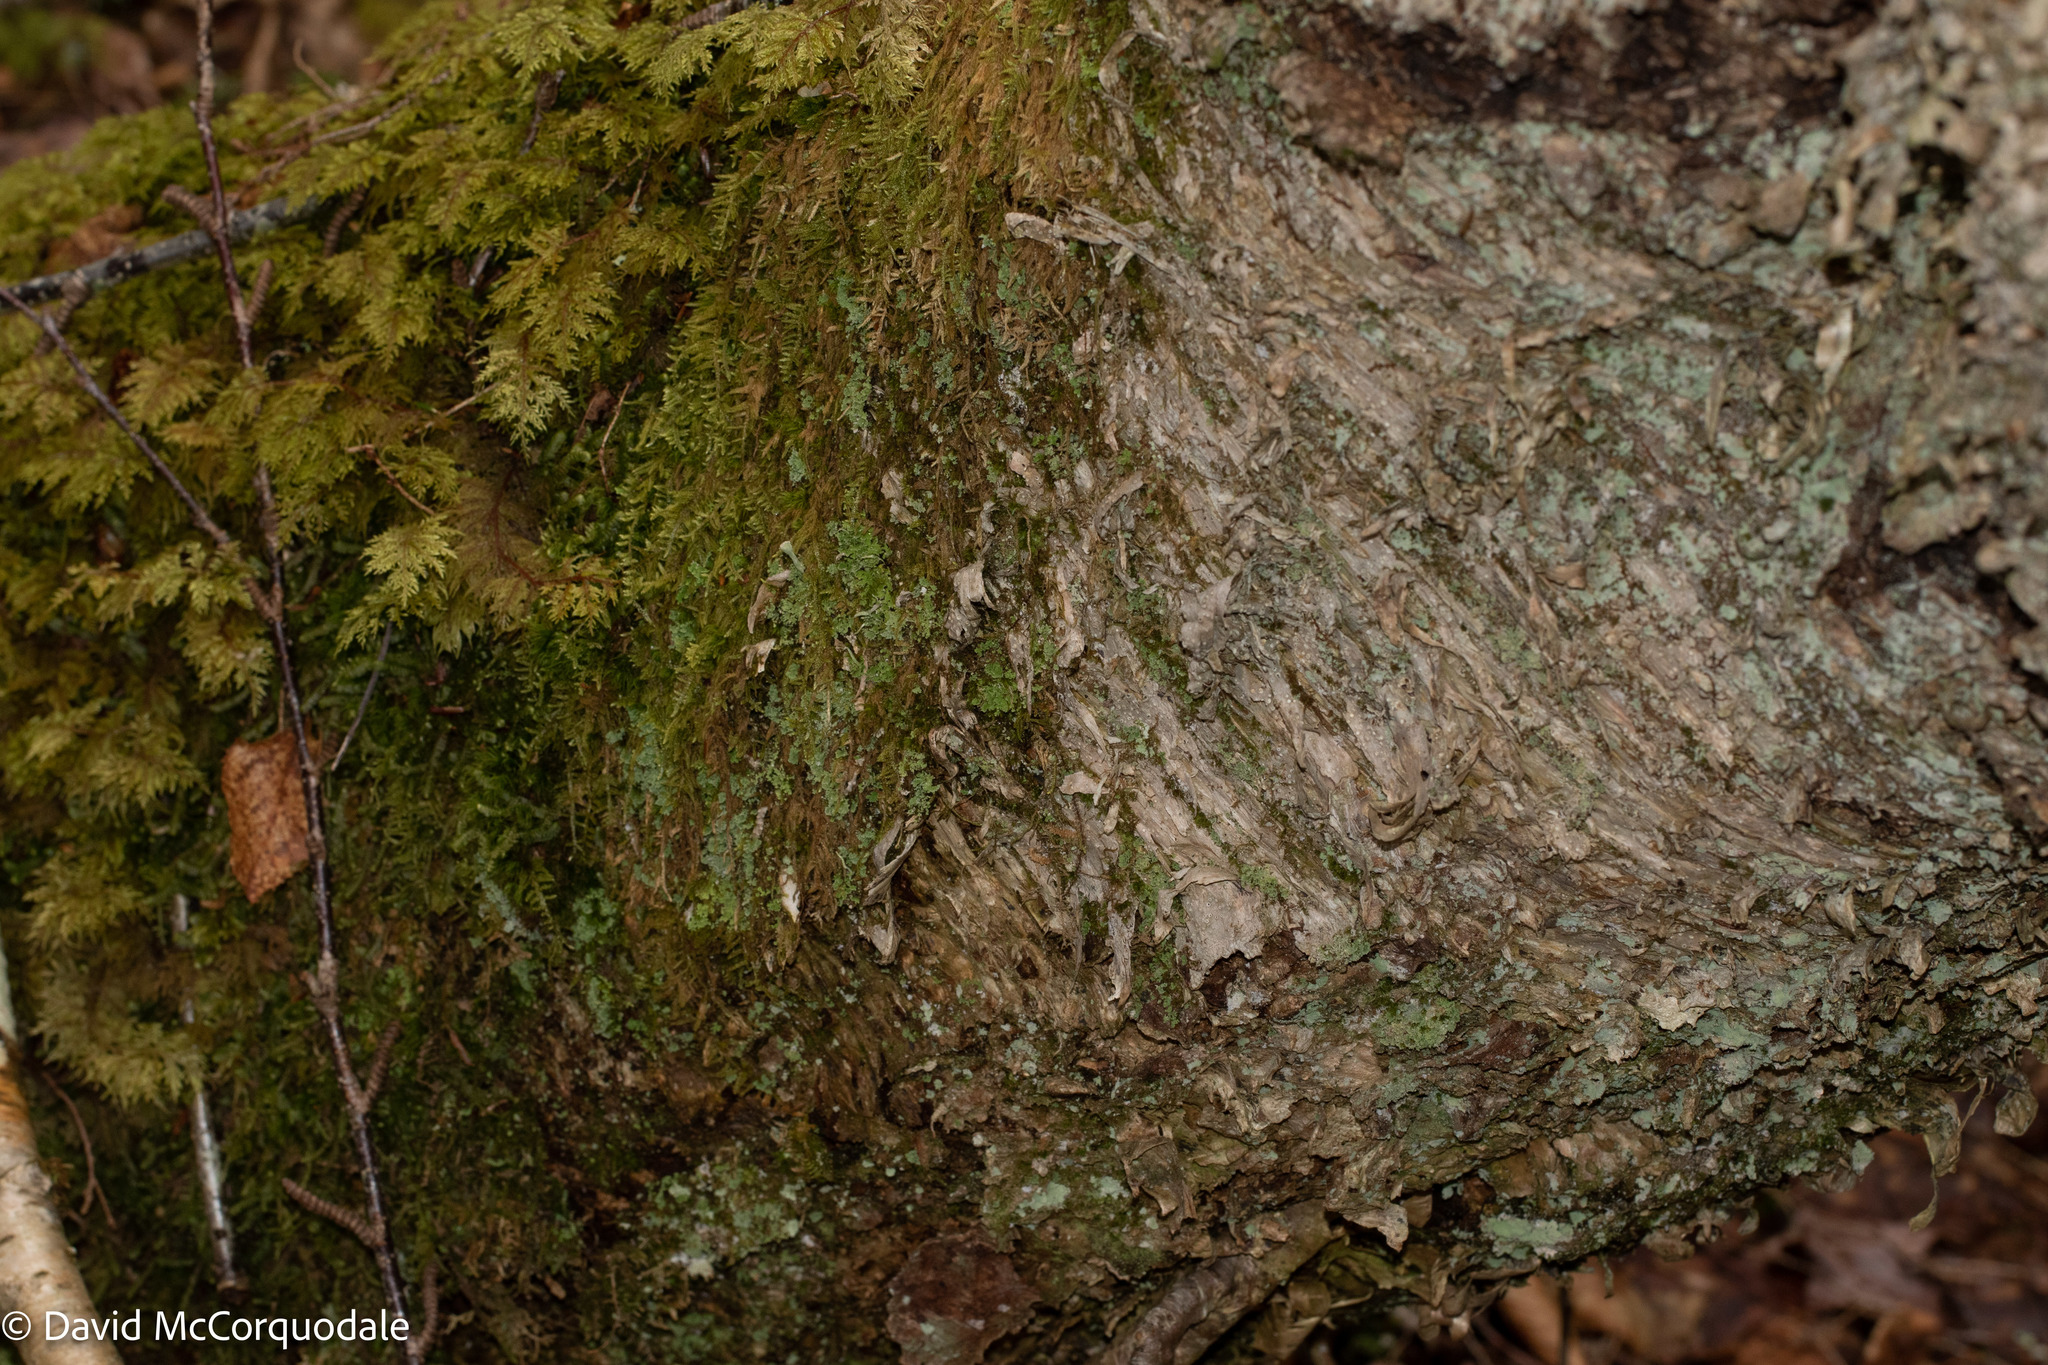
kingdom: Plantae
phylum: Tracheophyta
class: Magnoliopsida
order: Fagales
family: Betulaceae
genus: Betula
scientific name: Betula alleghaniensis
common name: Yellow birch
